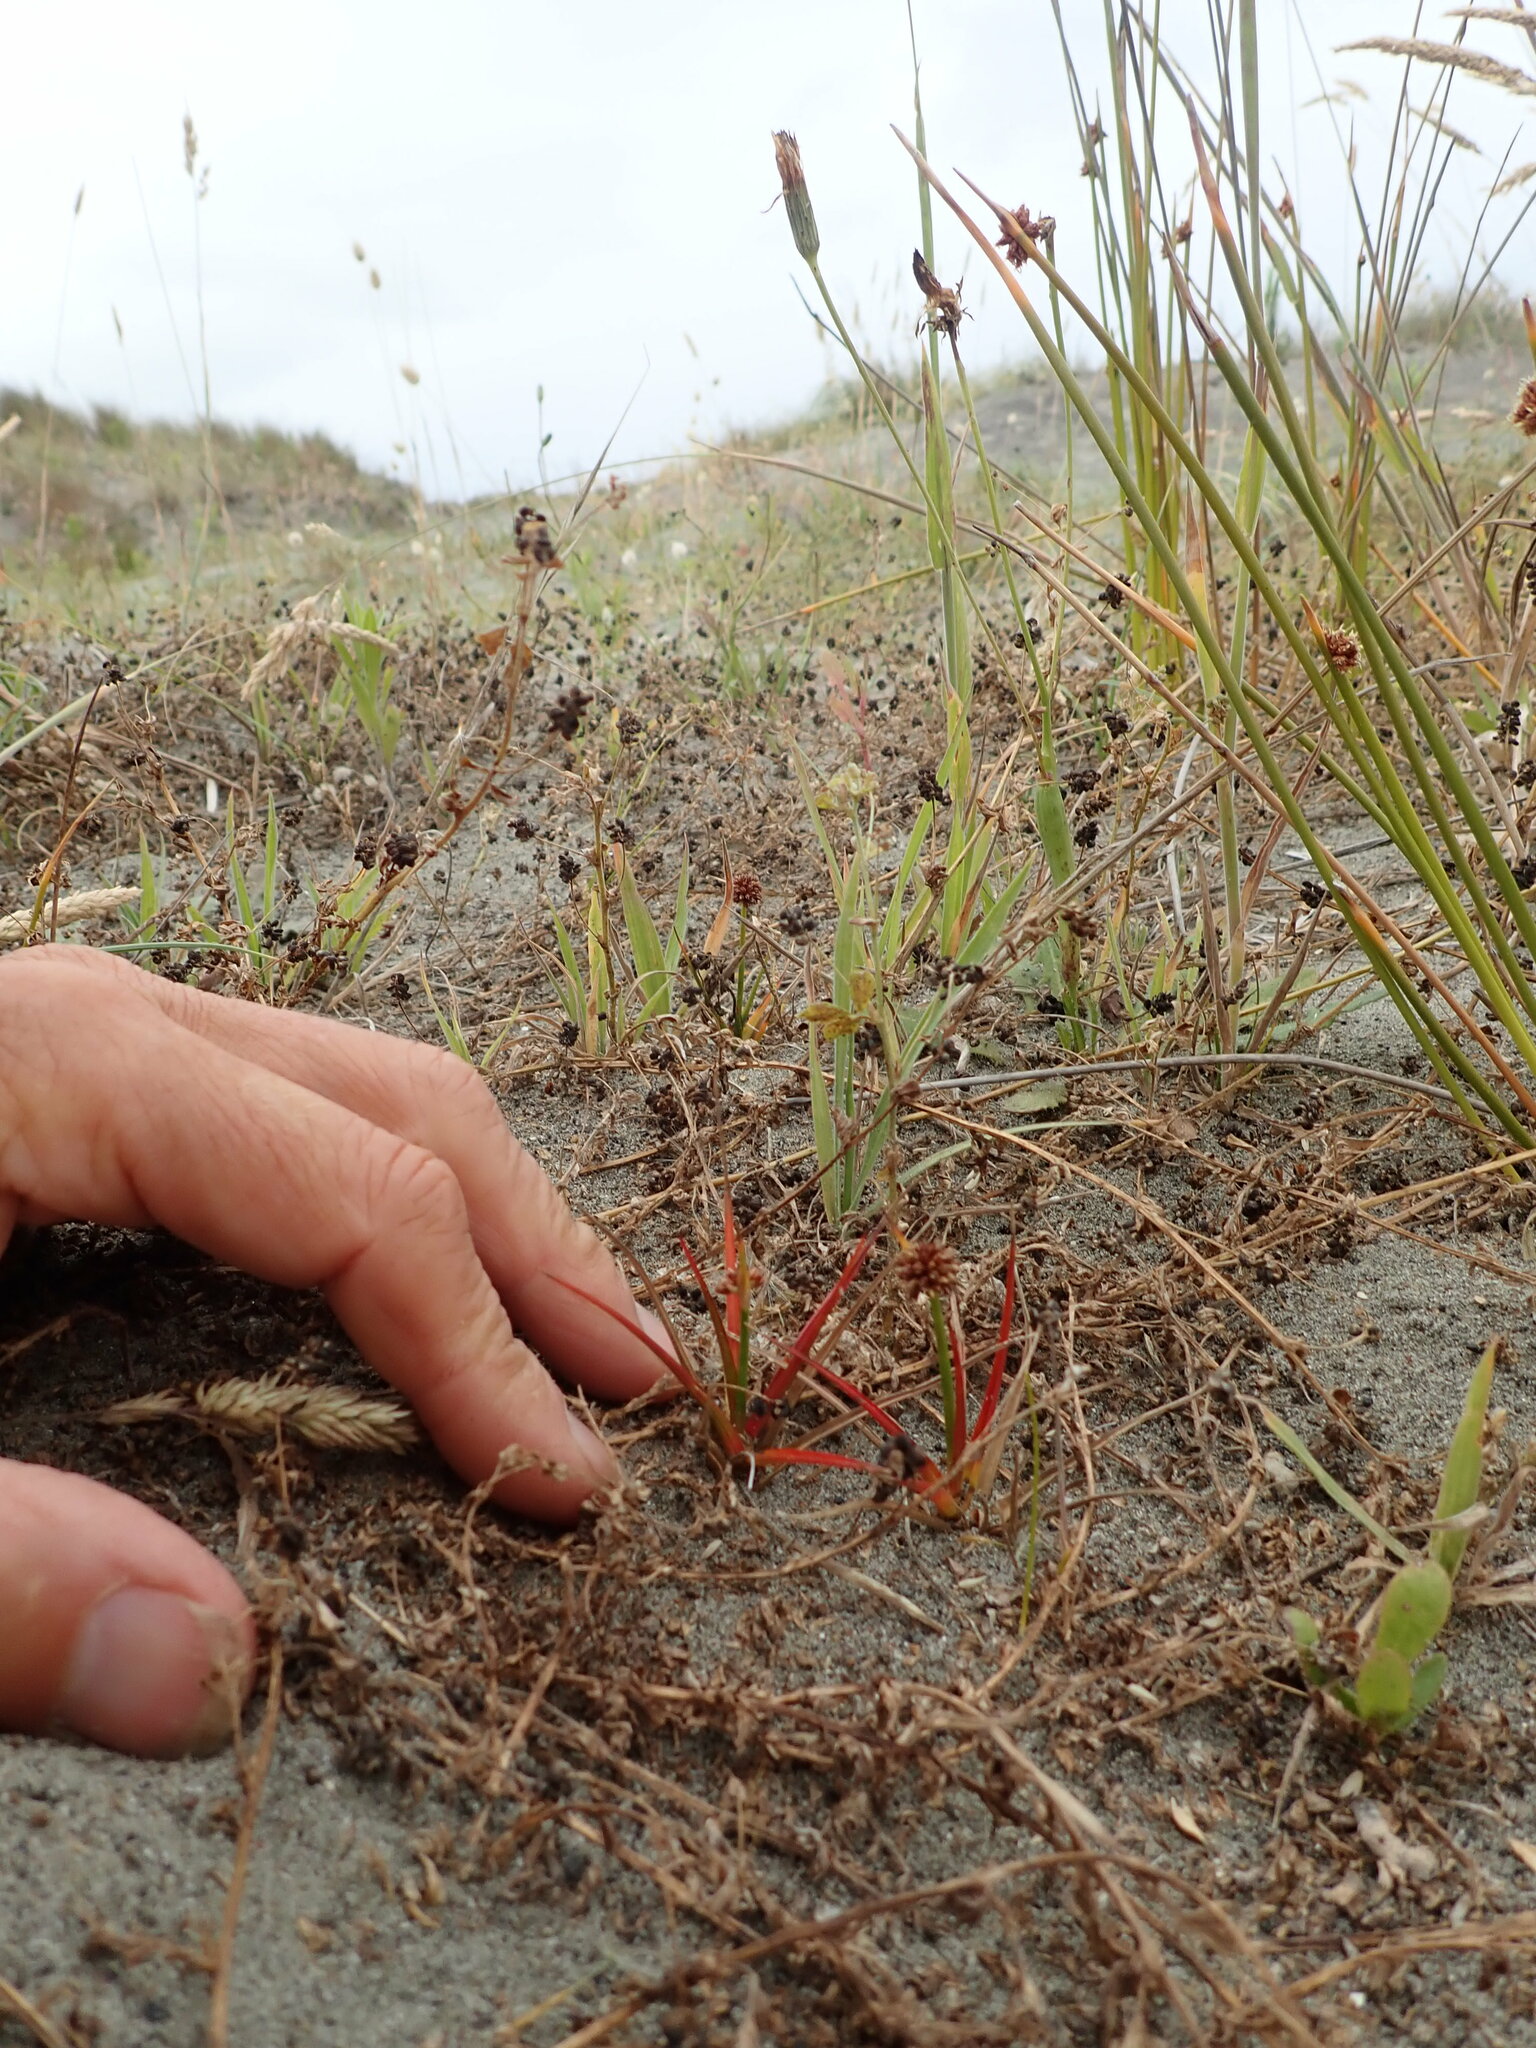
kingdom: Plantae
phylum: Tracheophyta
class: Liliopsida
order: Poales
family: Juncaceae
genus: Juncus
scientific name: Juncus caespiticius
